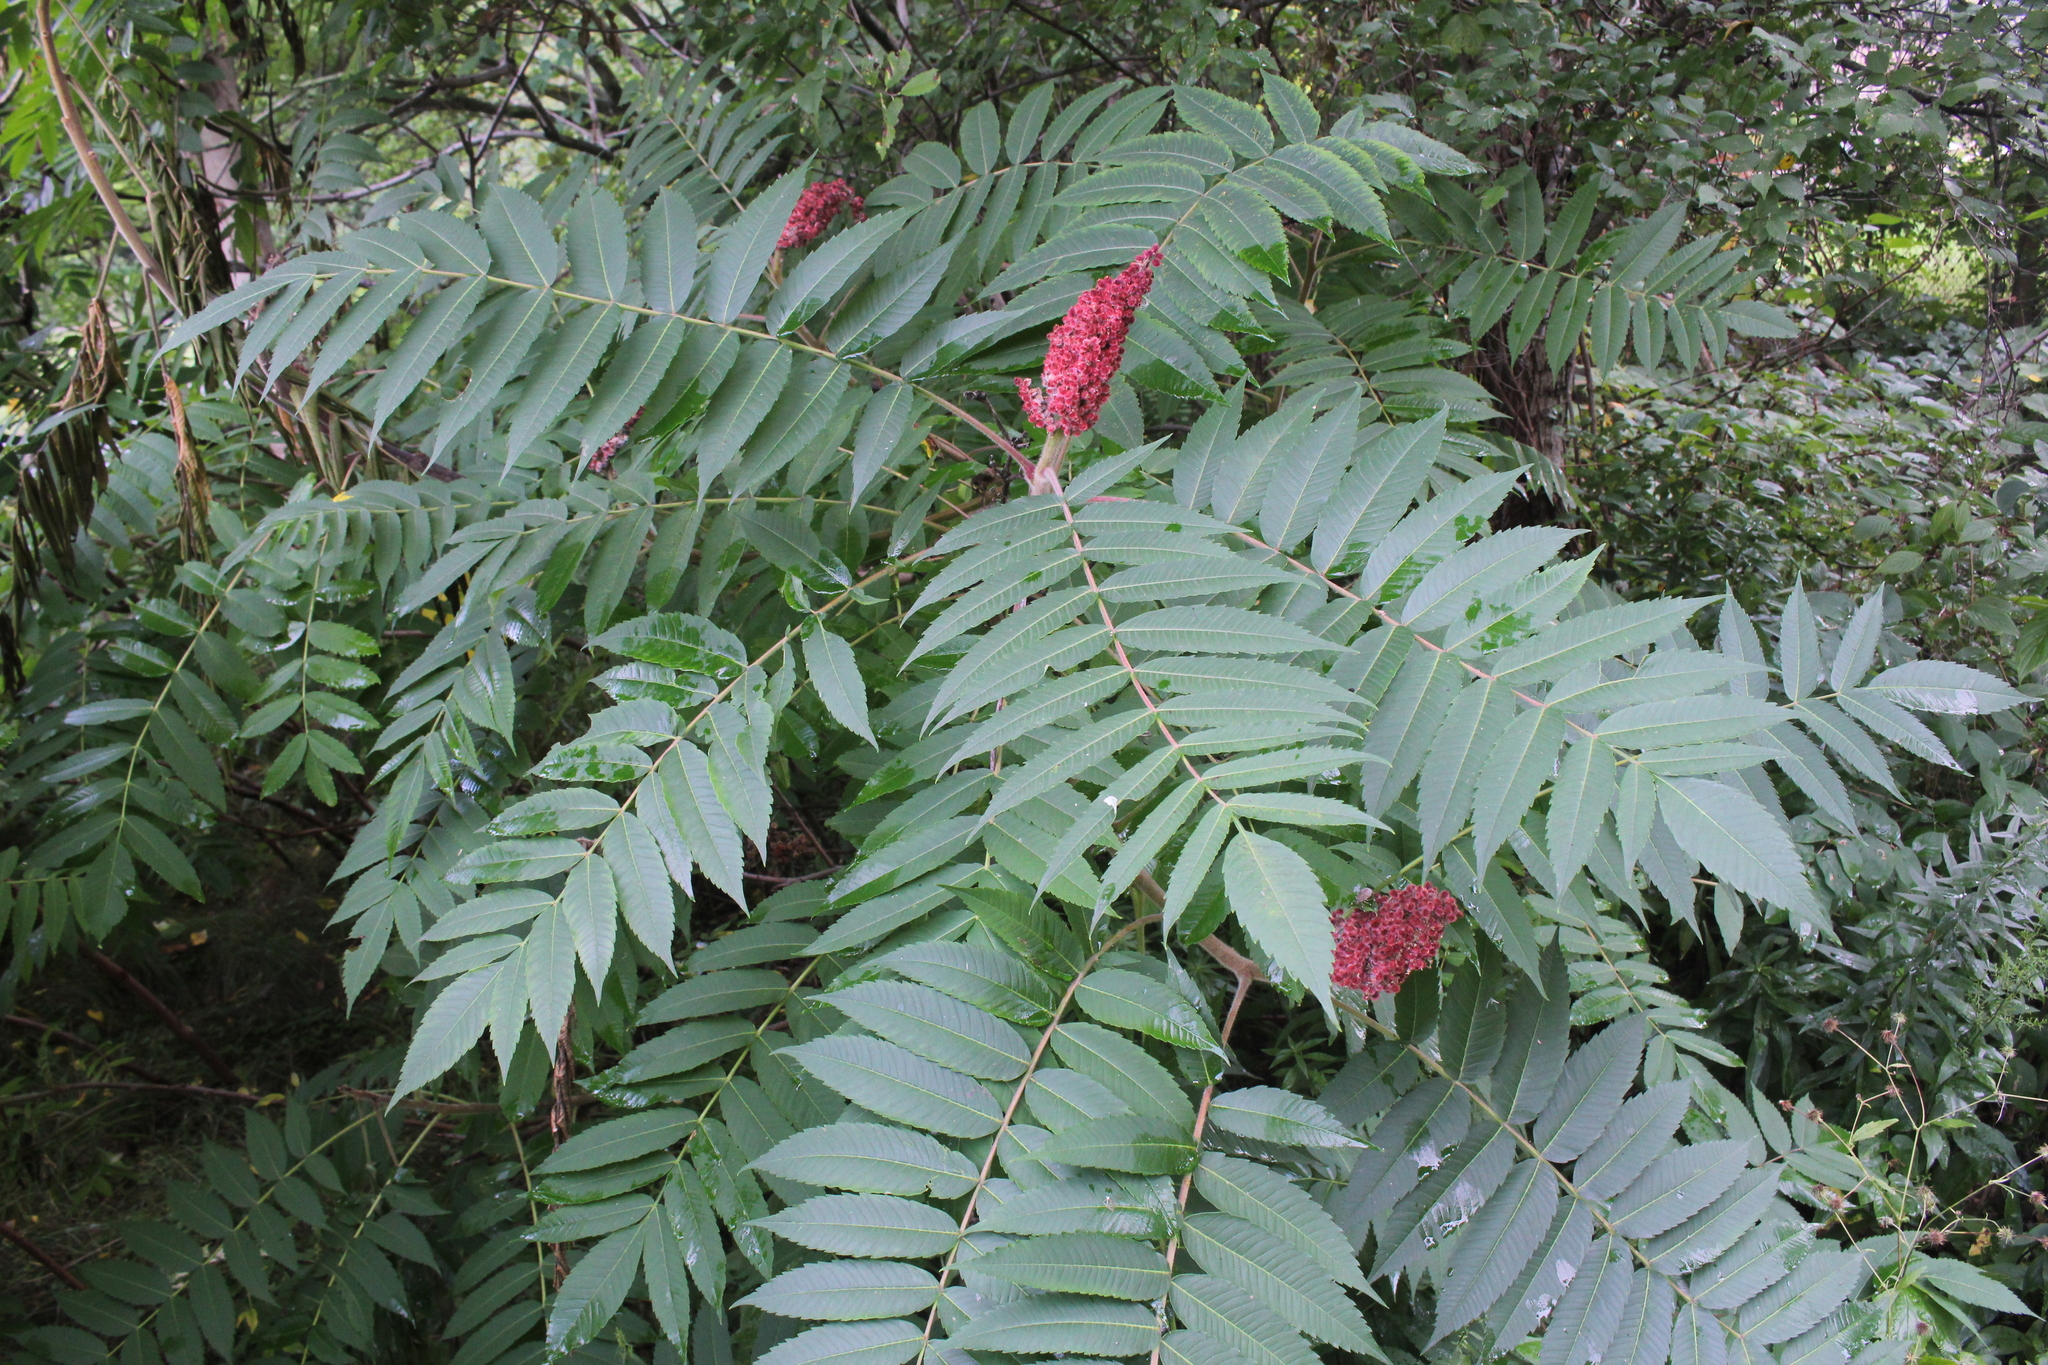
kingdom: Plantae
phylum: Tracheophyta
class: Magnoliopsida
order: Sapindales
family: Anacardiaceae
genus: Rhus
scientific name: Rhus typhina
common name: Staghorn sumac
